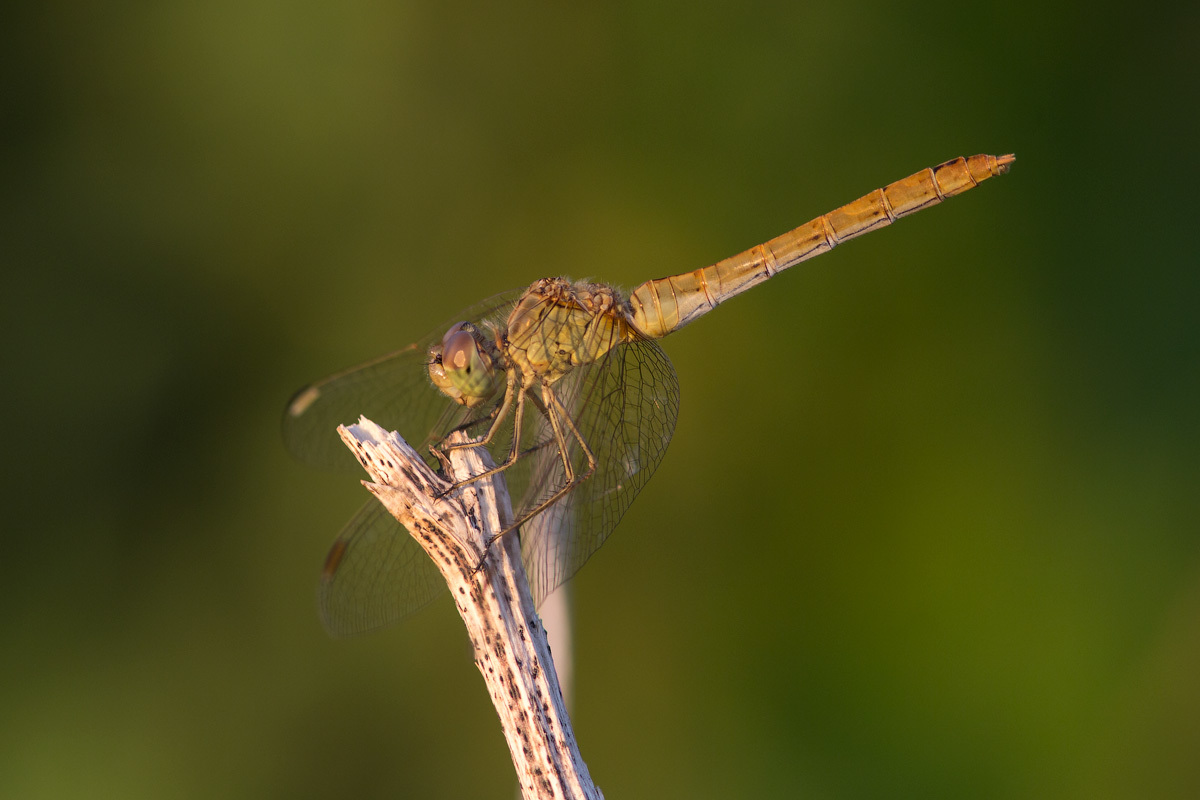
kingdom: Animalia
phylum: Arthropoda
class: Insecta
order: Odonata
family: Libellulidae
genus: Sympetrum
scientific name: Sympetrum meridionale
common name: Southern darter
